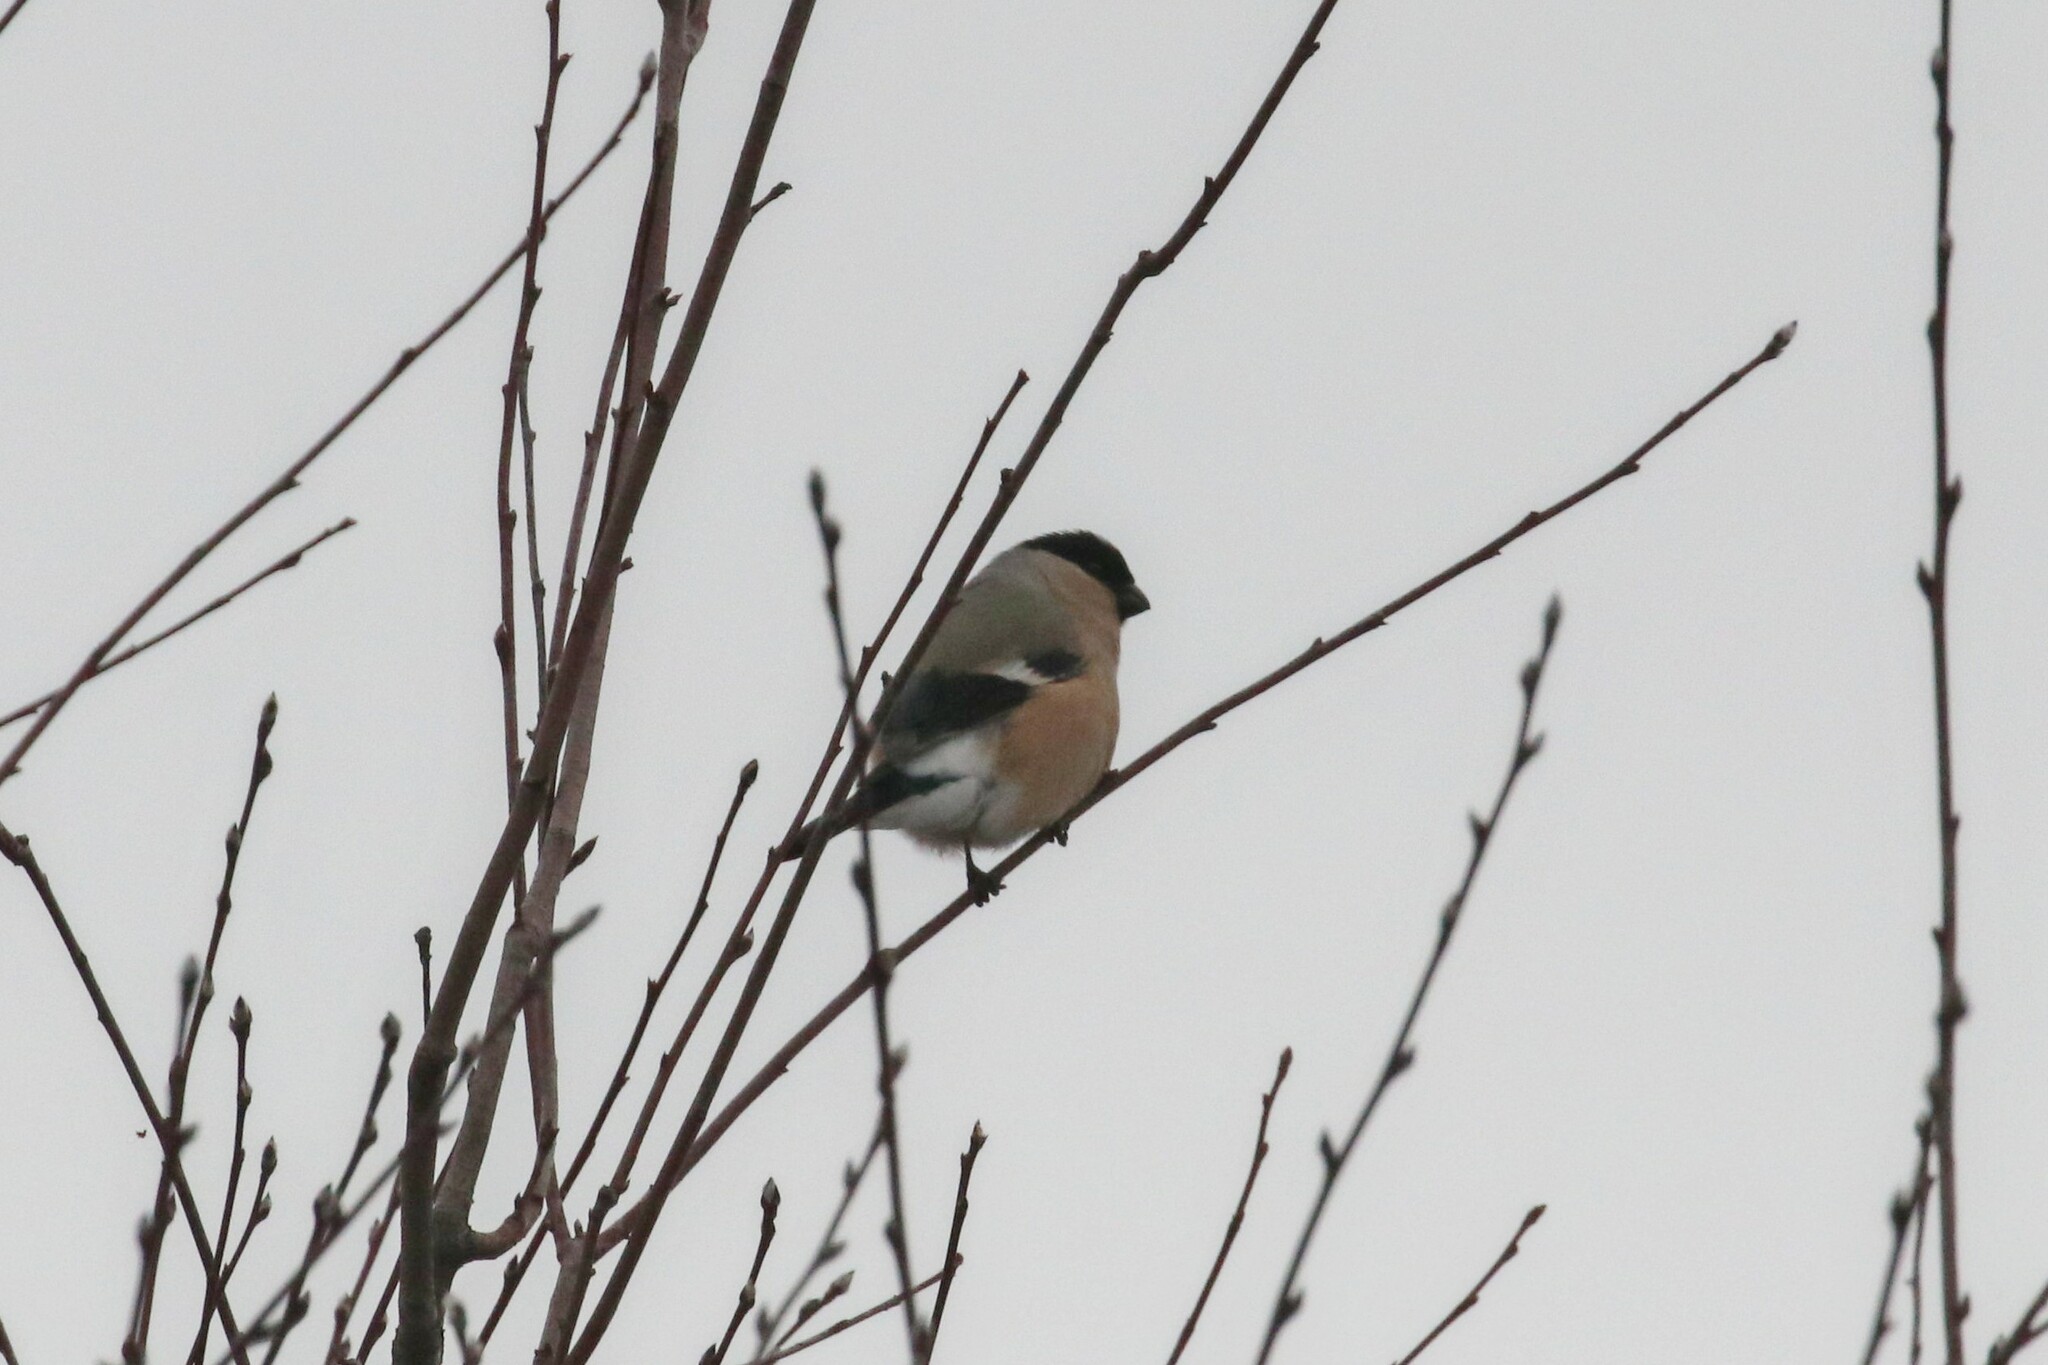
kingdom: Animalia
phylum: Chordata
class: Aves
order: Passeriformes
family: Fringillidae
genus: Pyrrhula
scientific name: Pyrrhula pyrrhula
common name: Eurasian bullfinch
